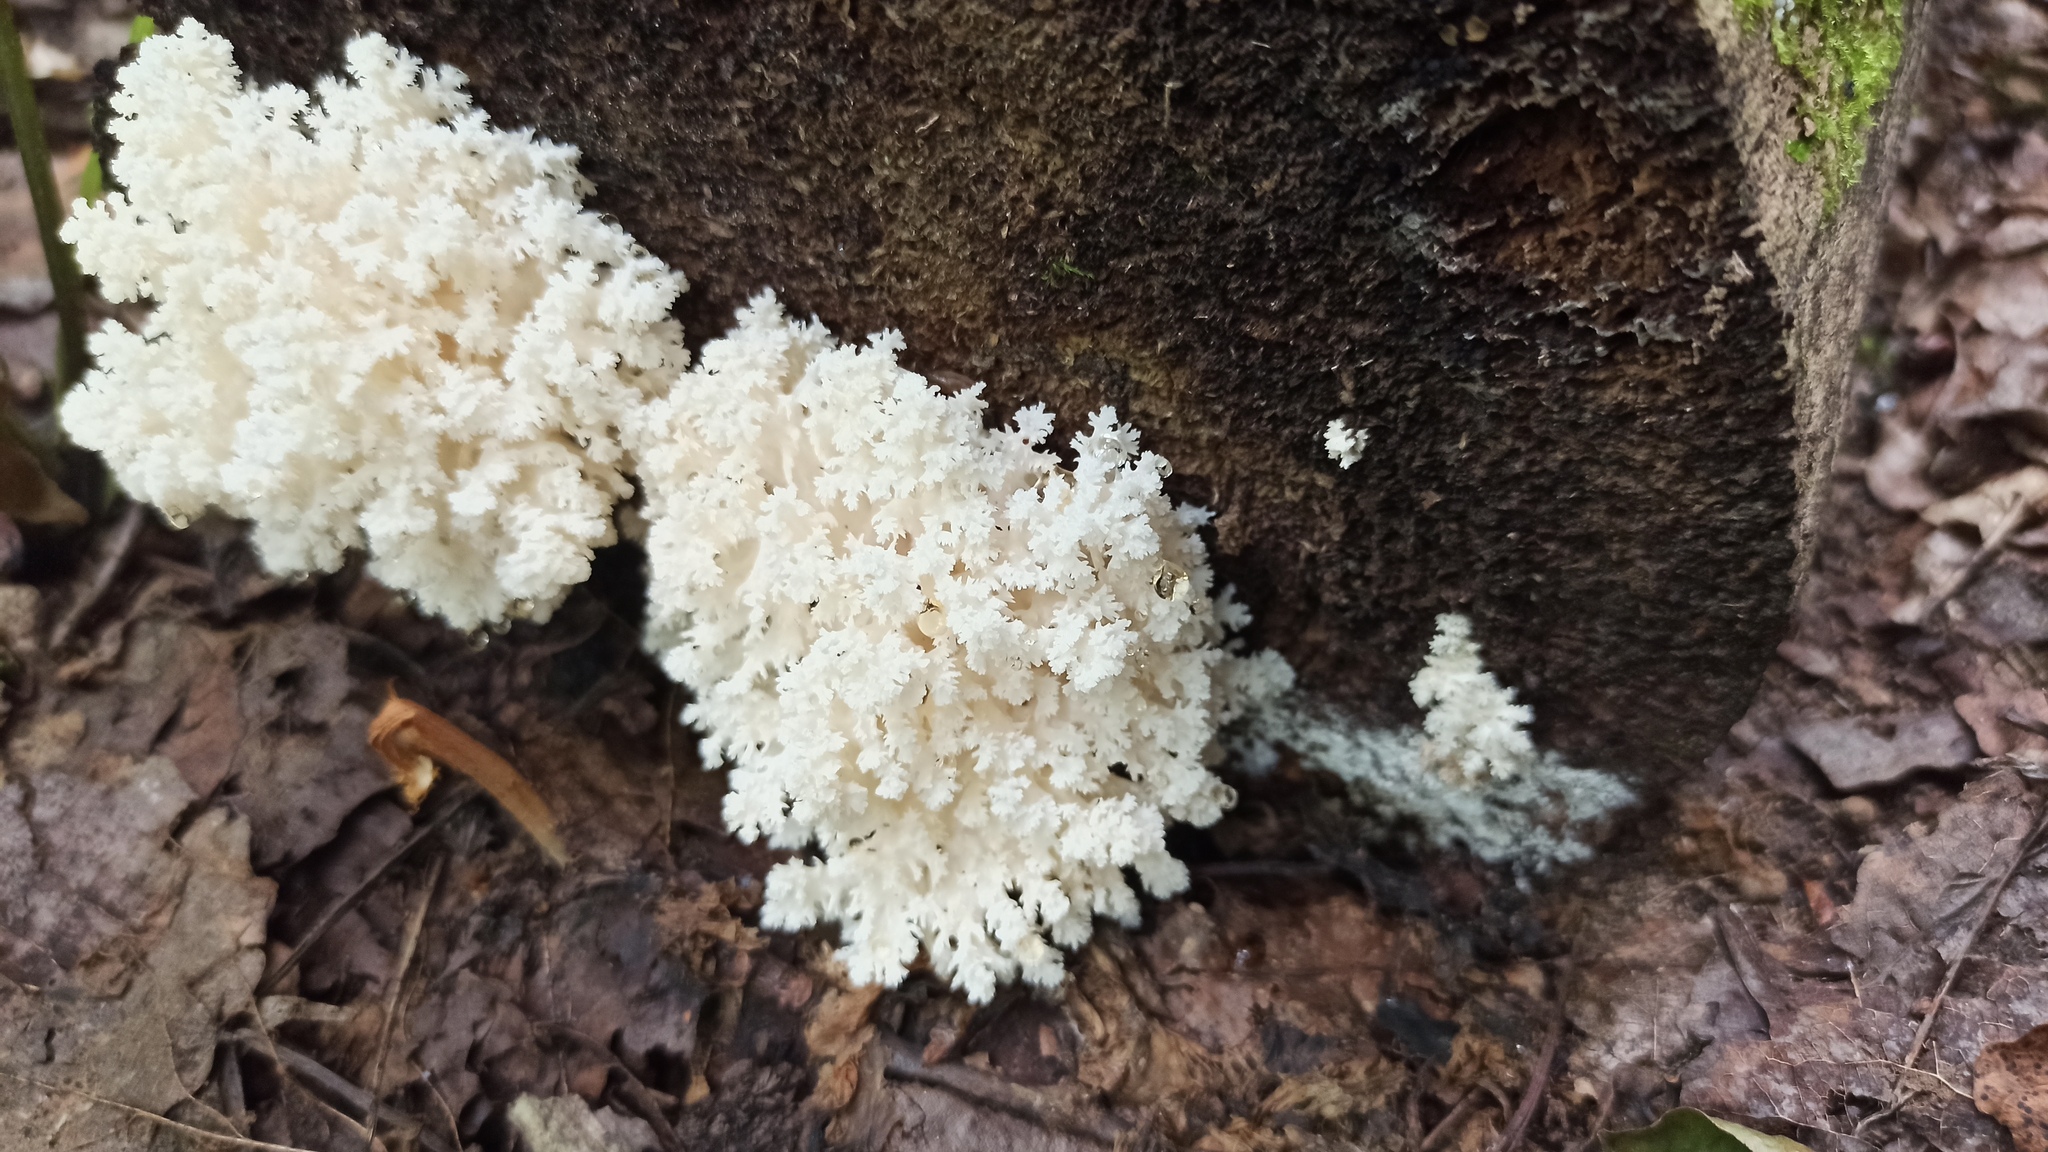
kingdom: Fungi
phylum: Basidiomycota
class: Agaricomycetes
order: Russulales
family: Hericiaceae
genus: Hericium
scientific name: Hericium coralloides
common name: Coral tooth
